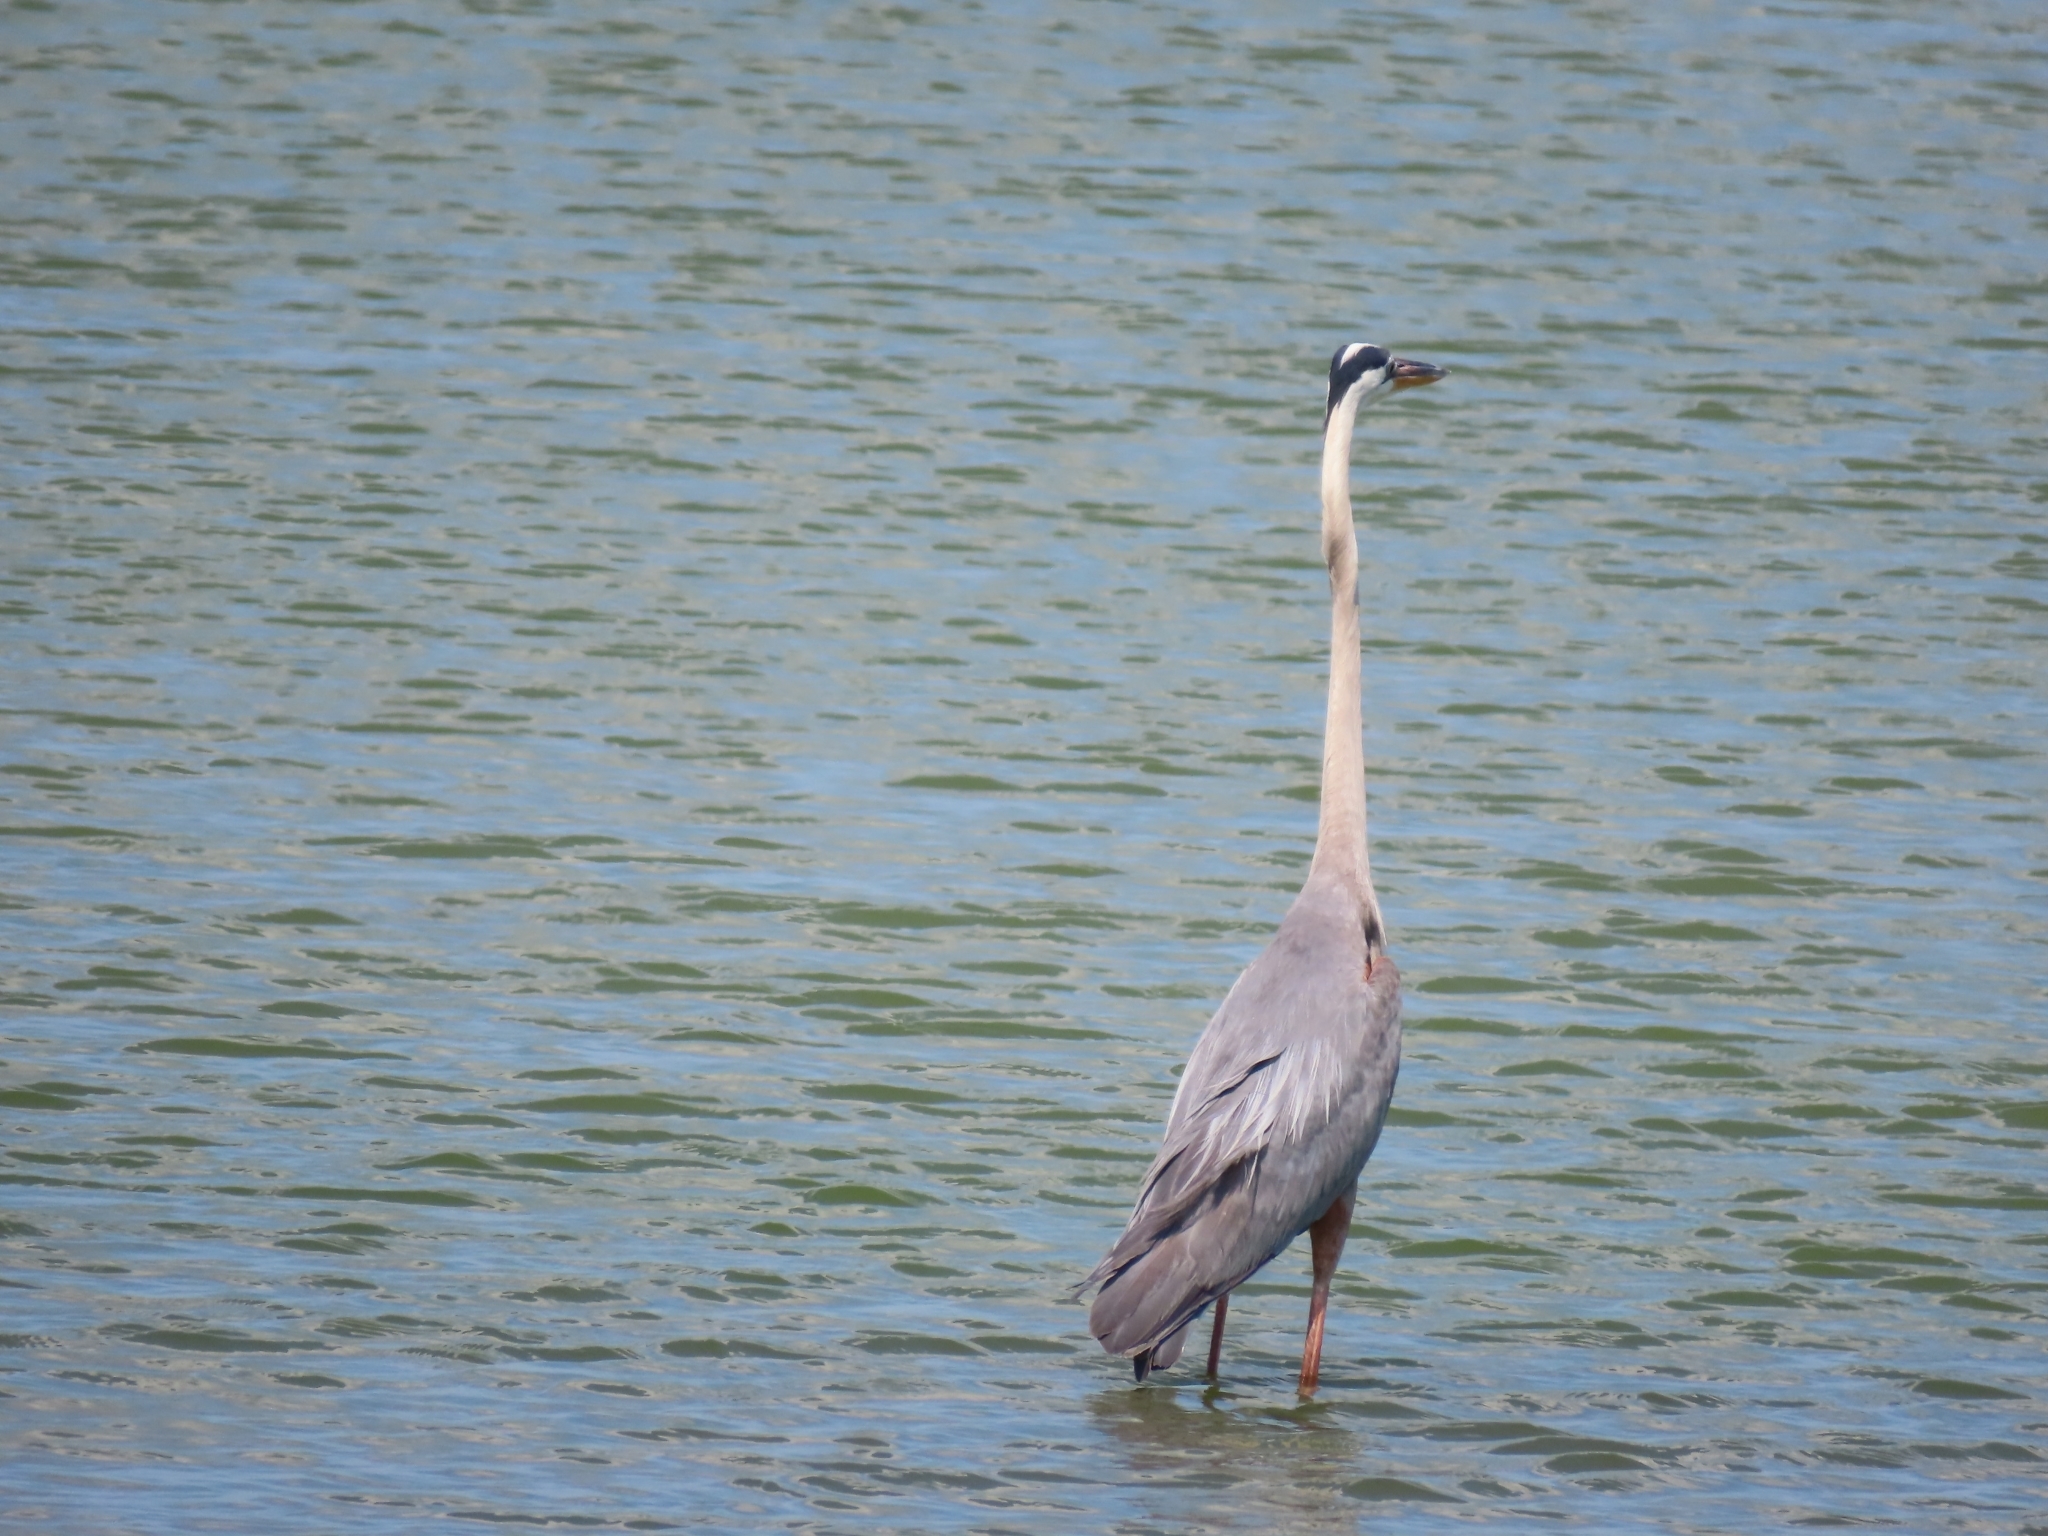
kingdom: Animalia
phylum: Chordata
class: Aves
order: Pelecaniformes
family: Ardeidae
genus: Ardea
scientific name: Ardea herodias
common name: Great blue heron
